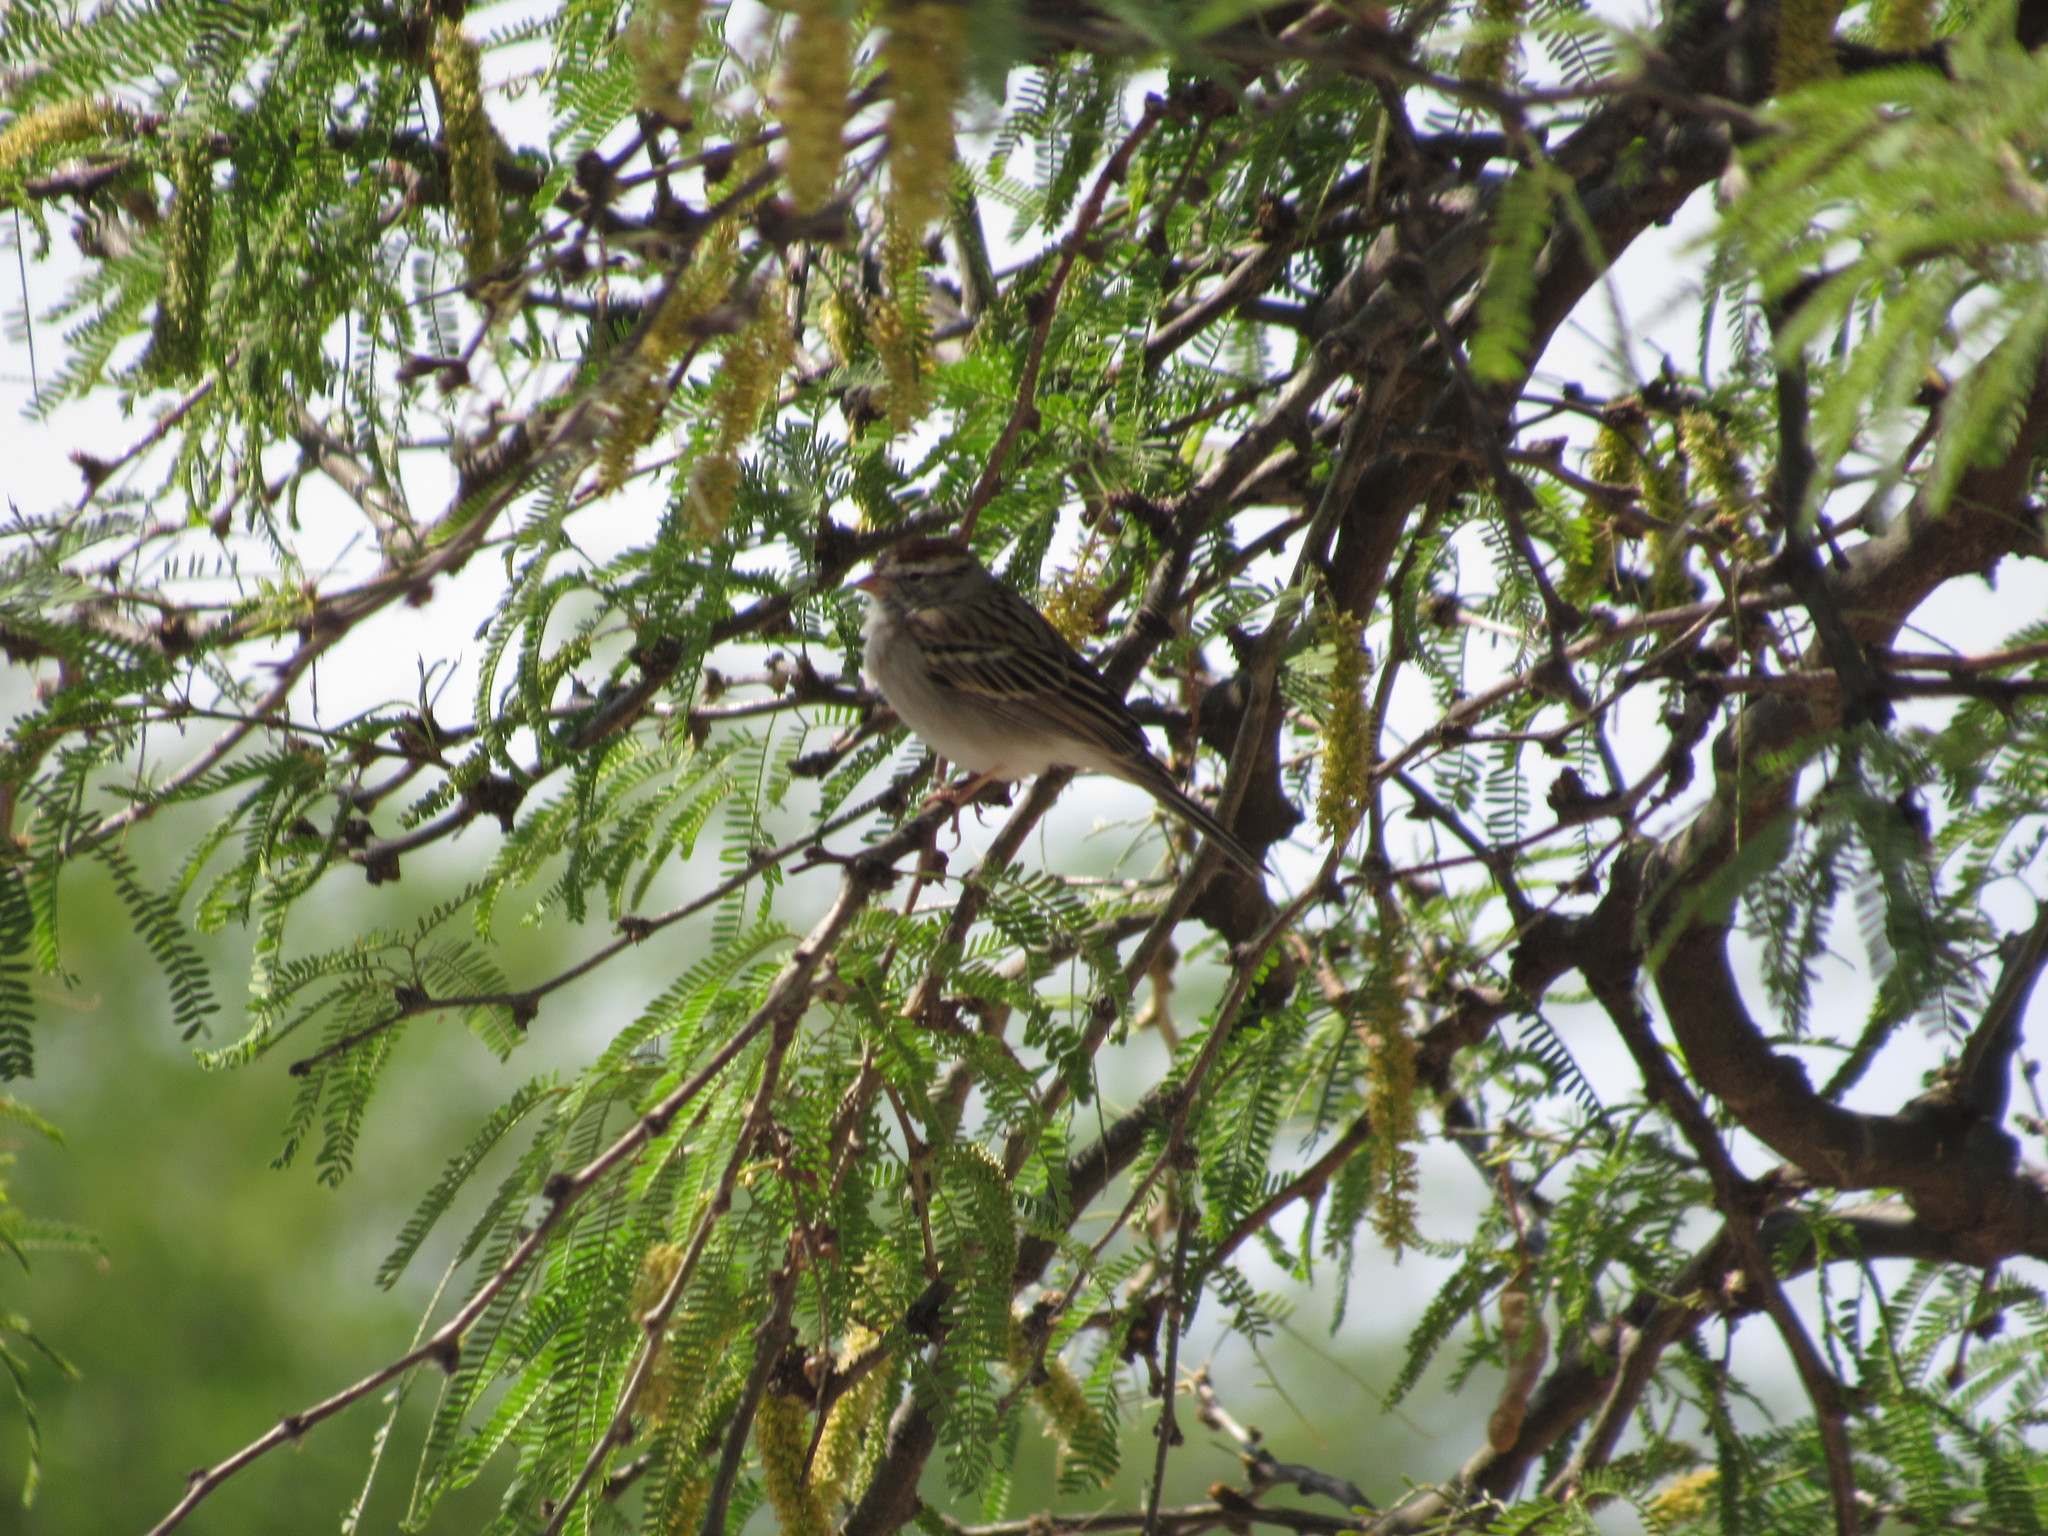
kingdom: Animalia
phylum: Chordata
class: Aves
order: Passeriformes
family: Passerellidae
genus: Spizella
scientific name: Spizella passerina
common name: Chipping sparrow
